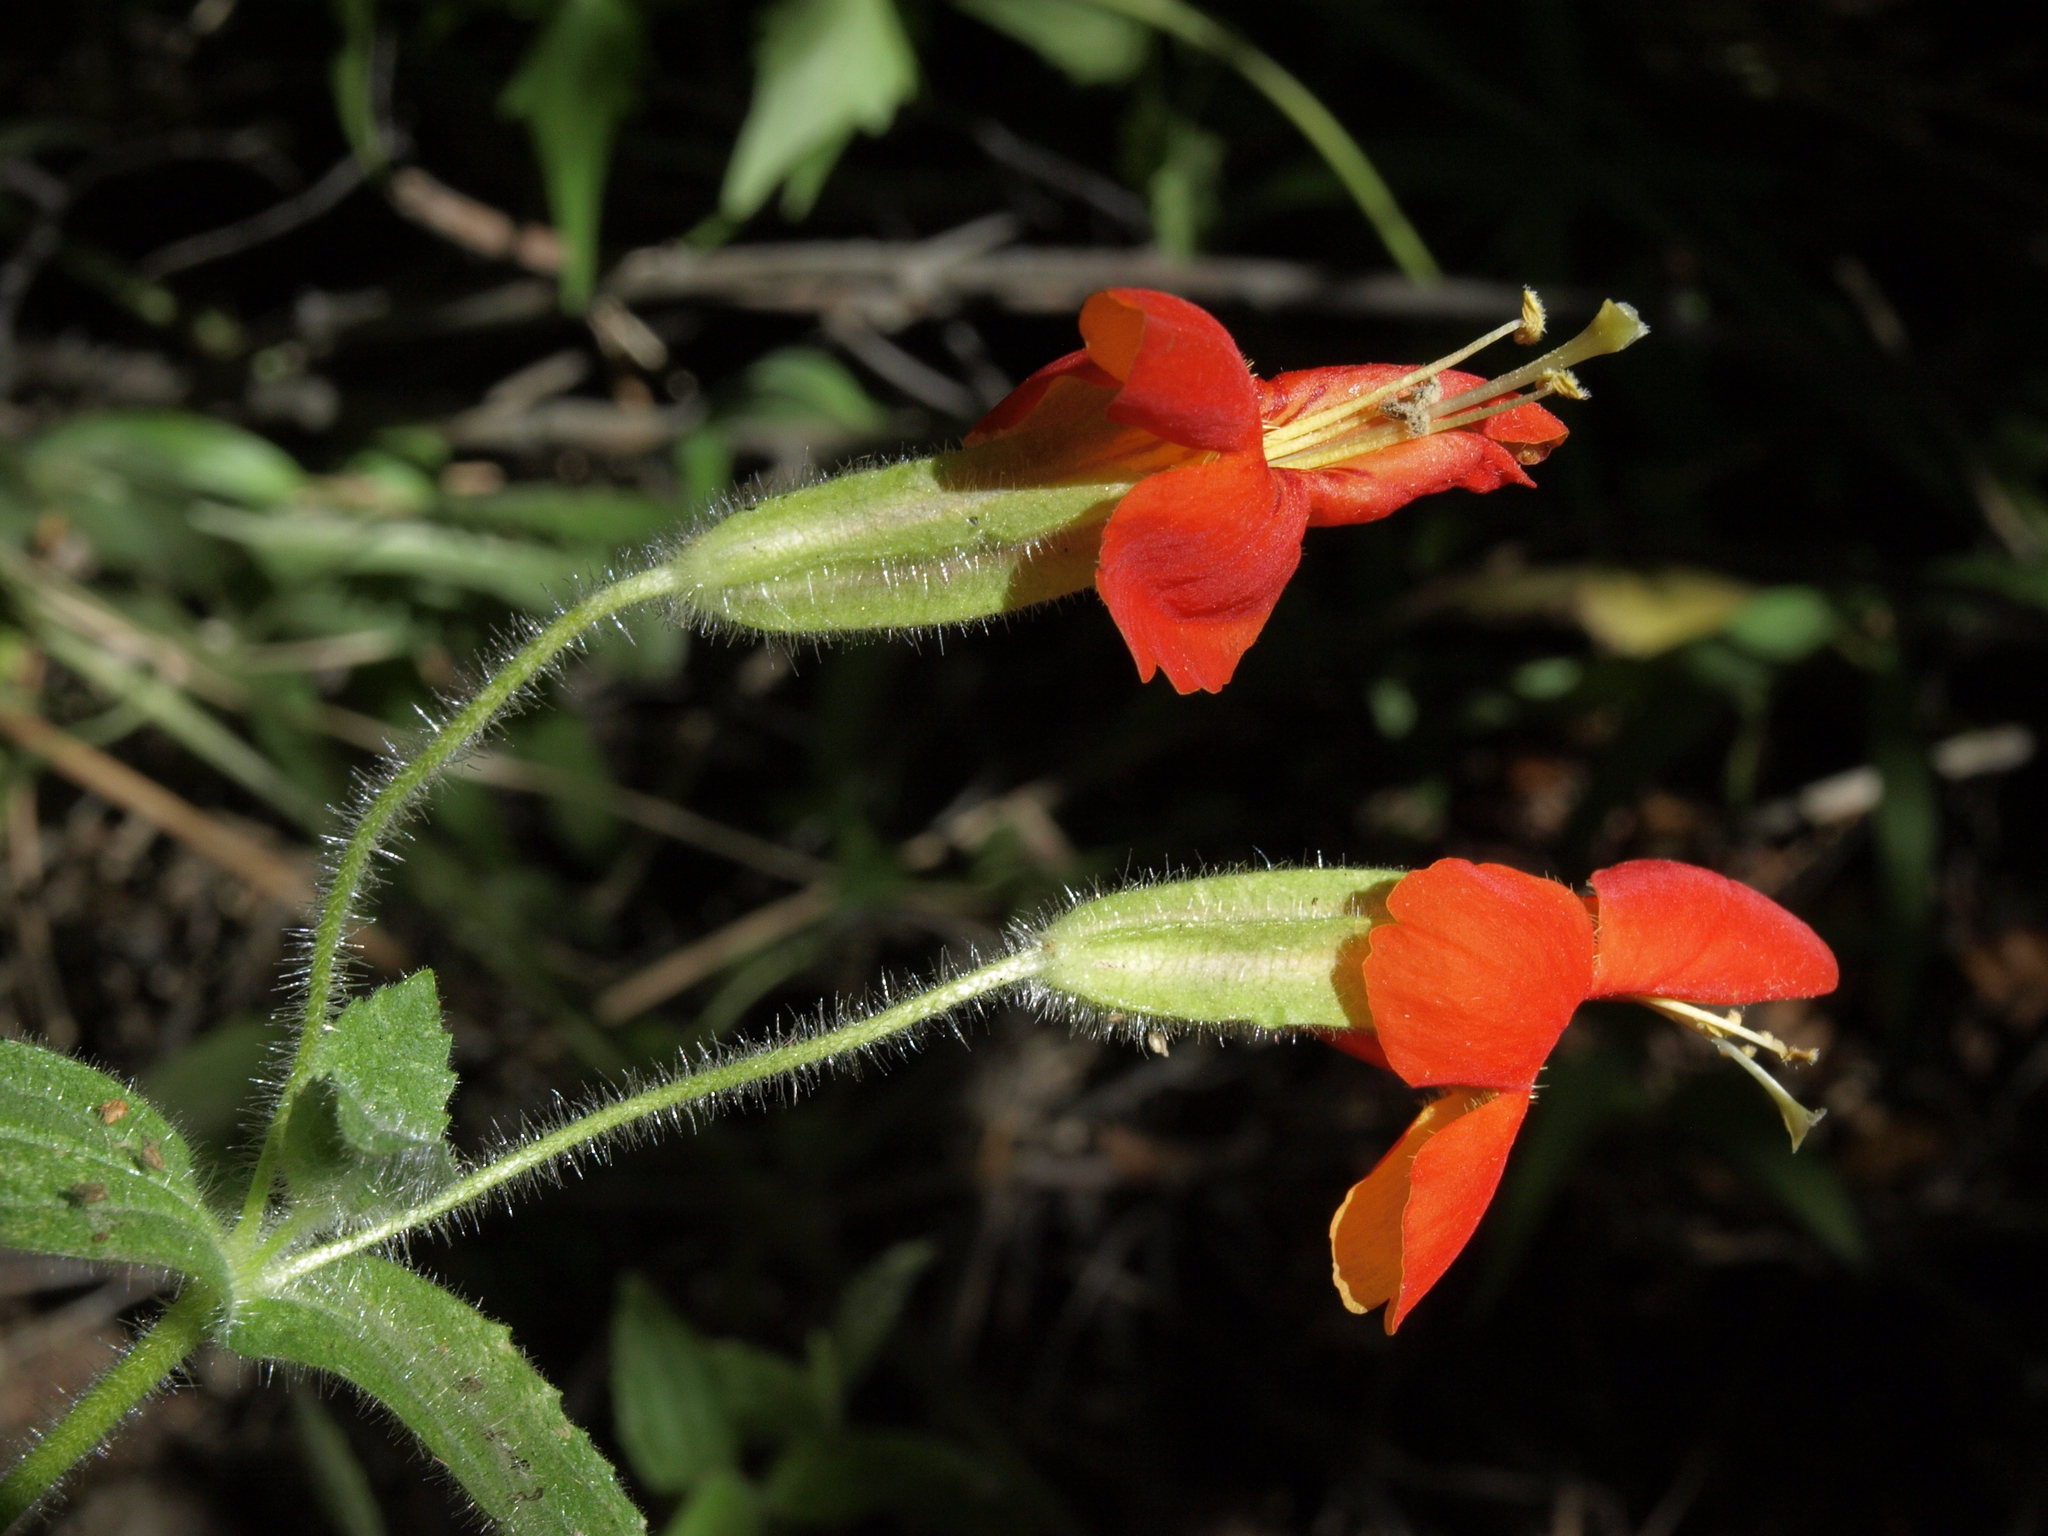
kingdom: Plantae
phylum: Tracheophyta
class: Magnoliopsida
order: Lamiales
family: Phrymaceae
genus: Erythranthe
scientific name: Erythranthe cardinalis
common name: Scarlet monkey-flower
